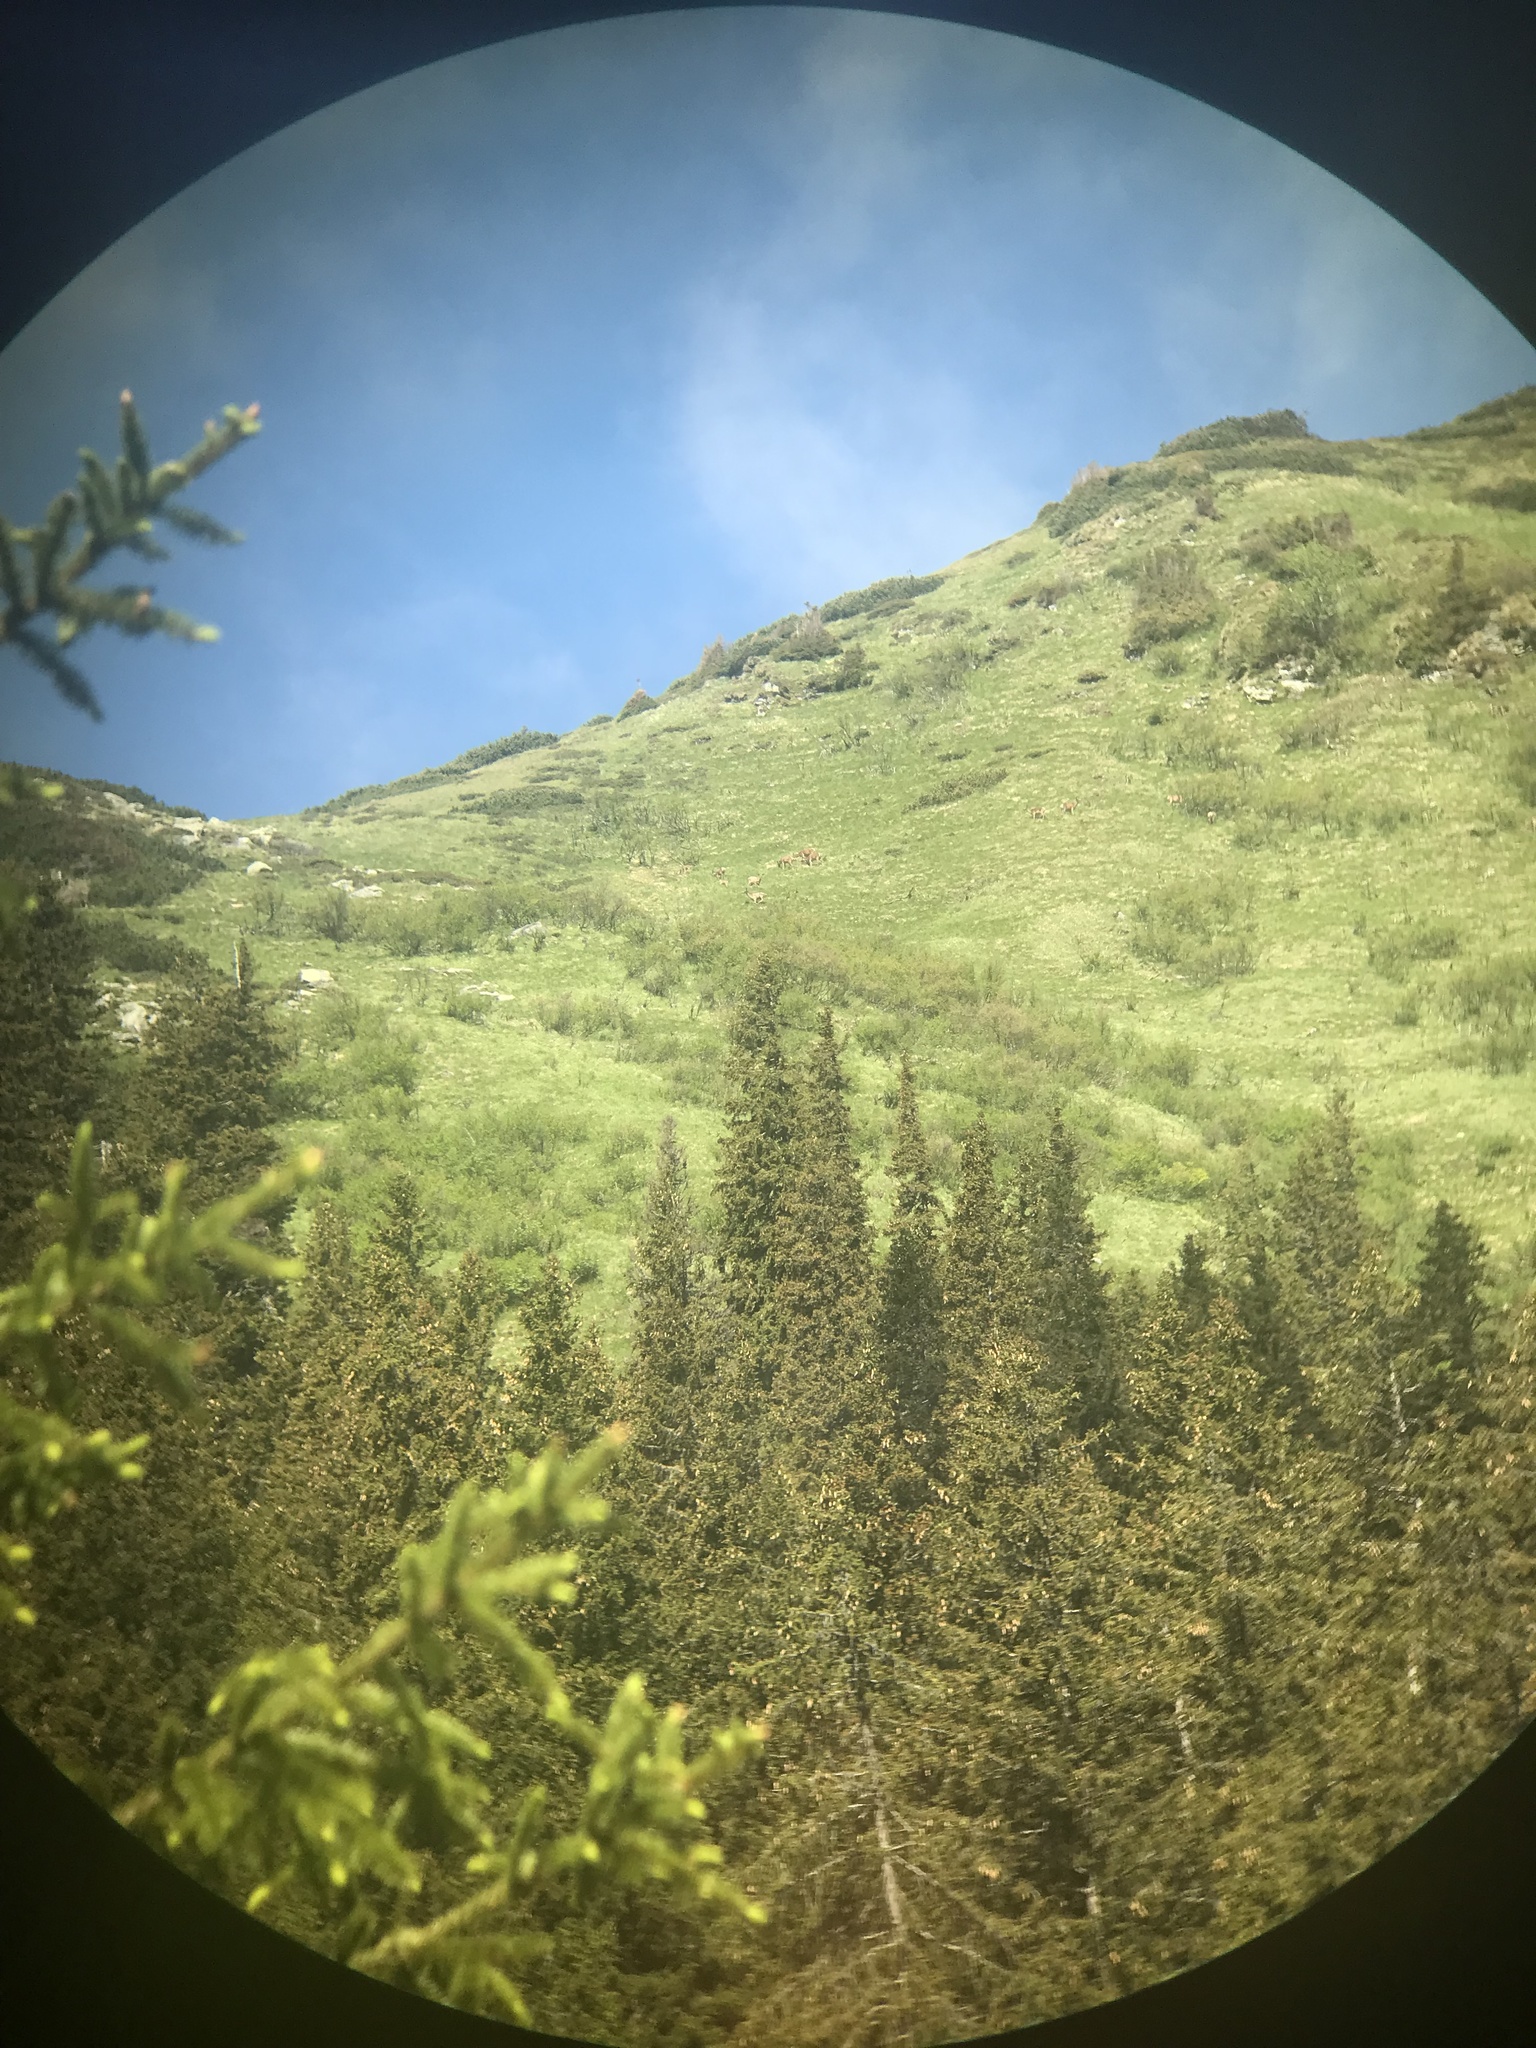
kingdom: Animalia
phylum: Chordata
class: Mammalia
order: Artiodactyla
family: Cervidae
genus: Cervus
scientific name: Cervus elaphus
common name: Red deer
